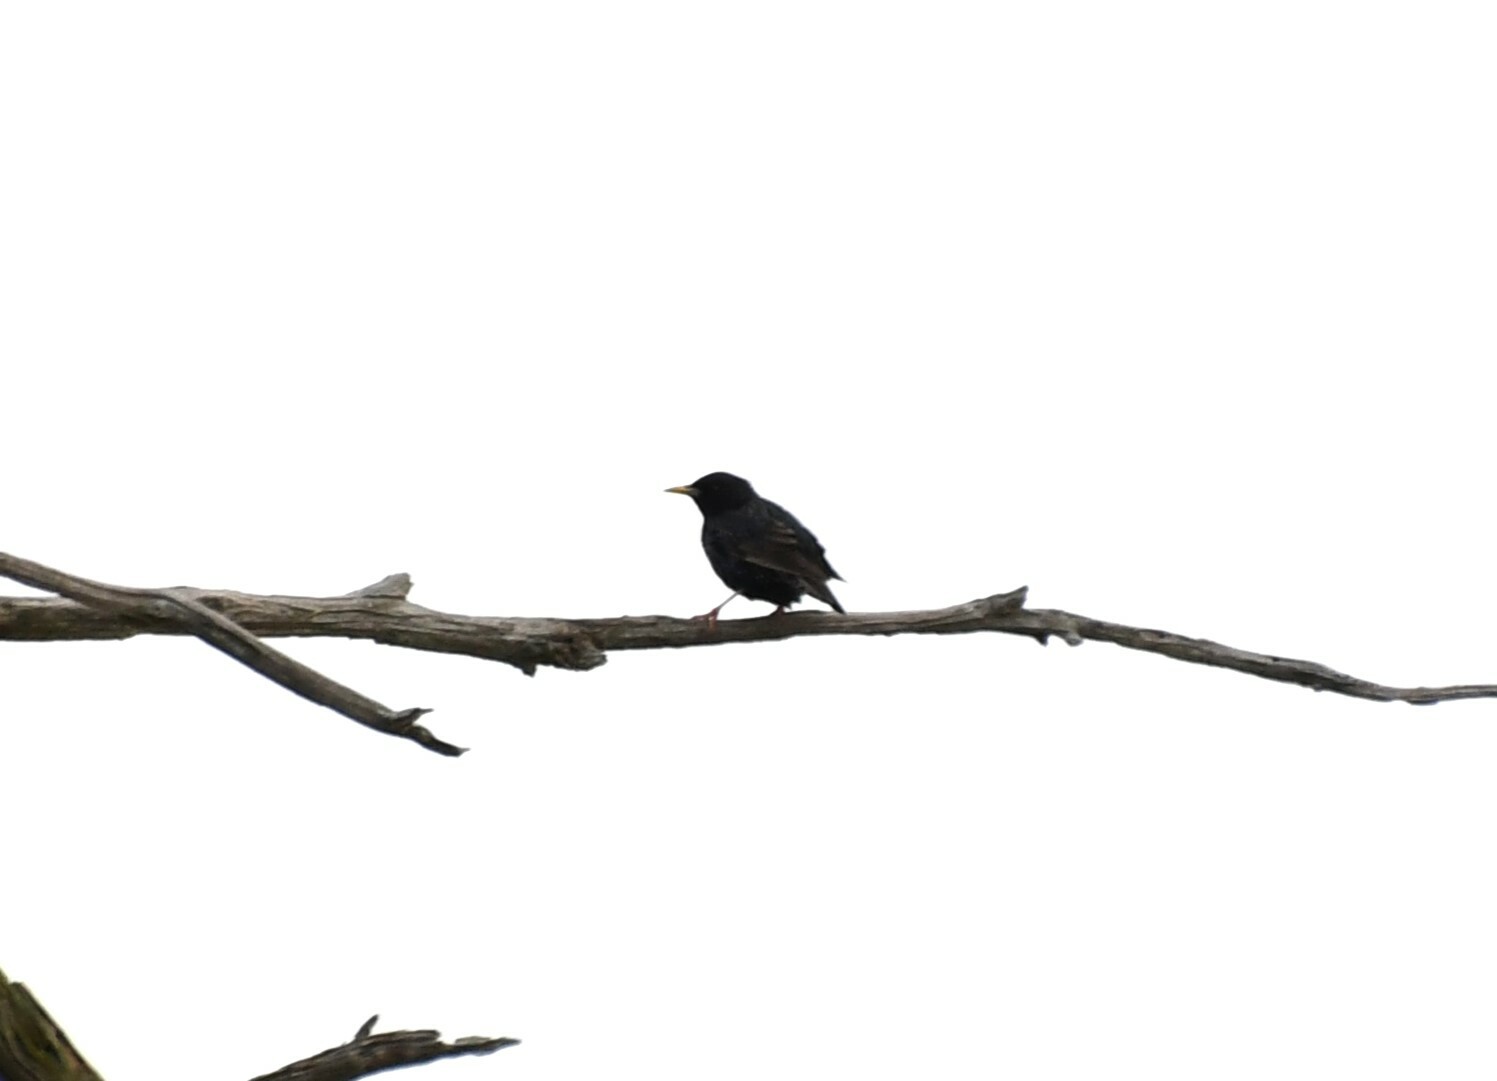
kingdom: Animalia
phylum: Chordata
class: Aves
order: Passeriformes
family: Sturnidae
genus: Sturnus
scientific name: Sturnus vulgaris
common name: Common starling
